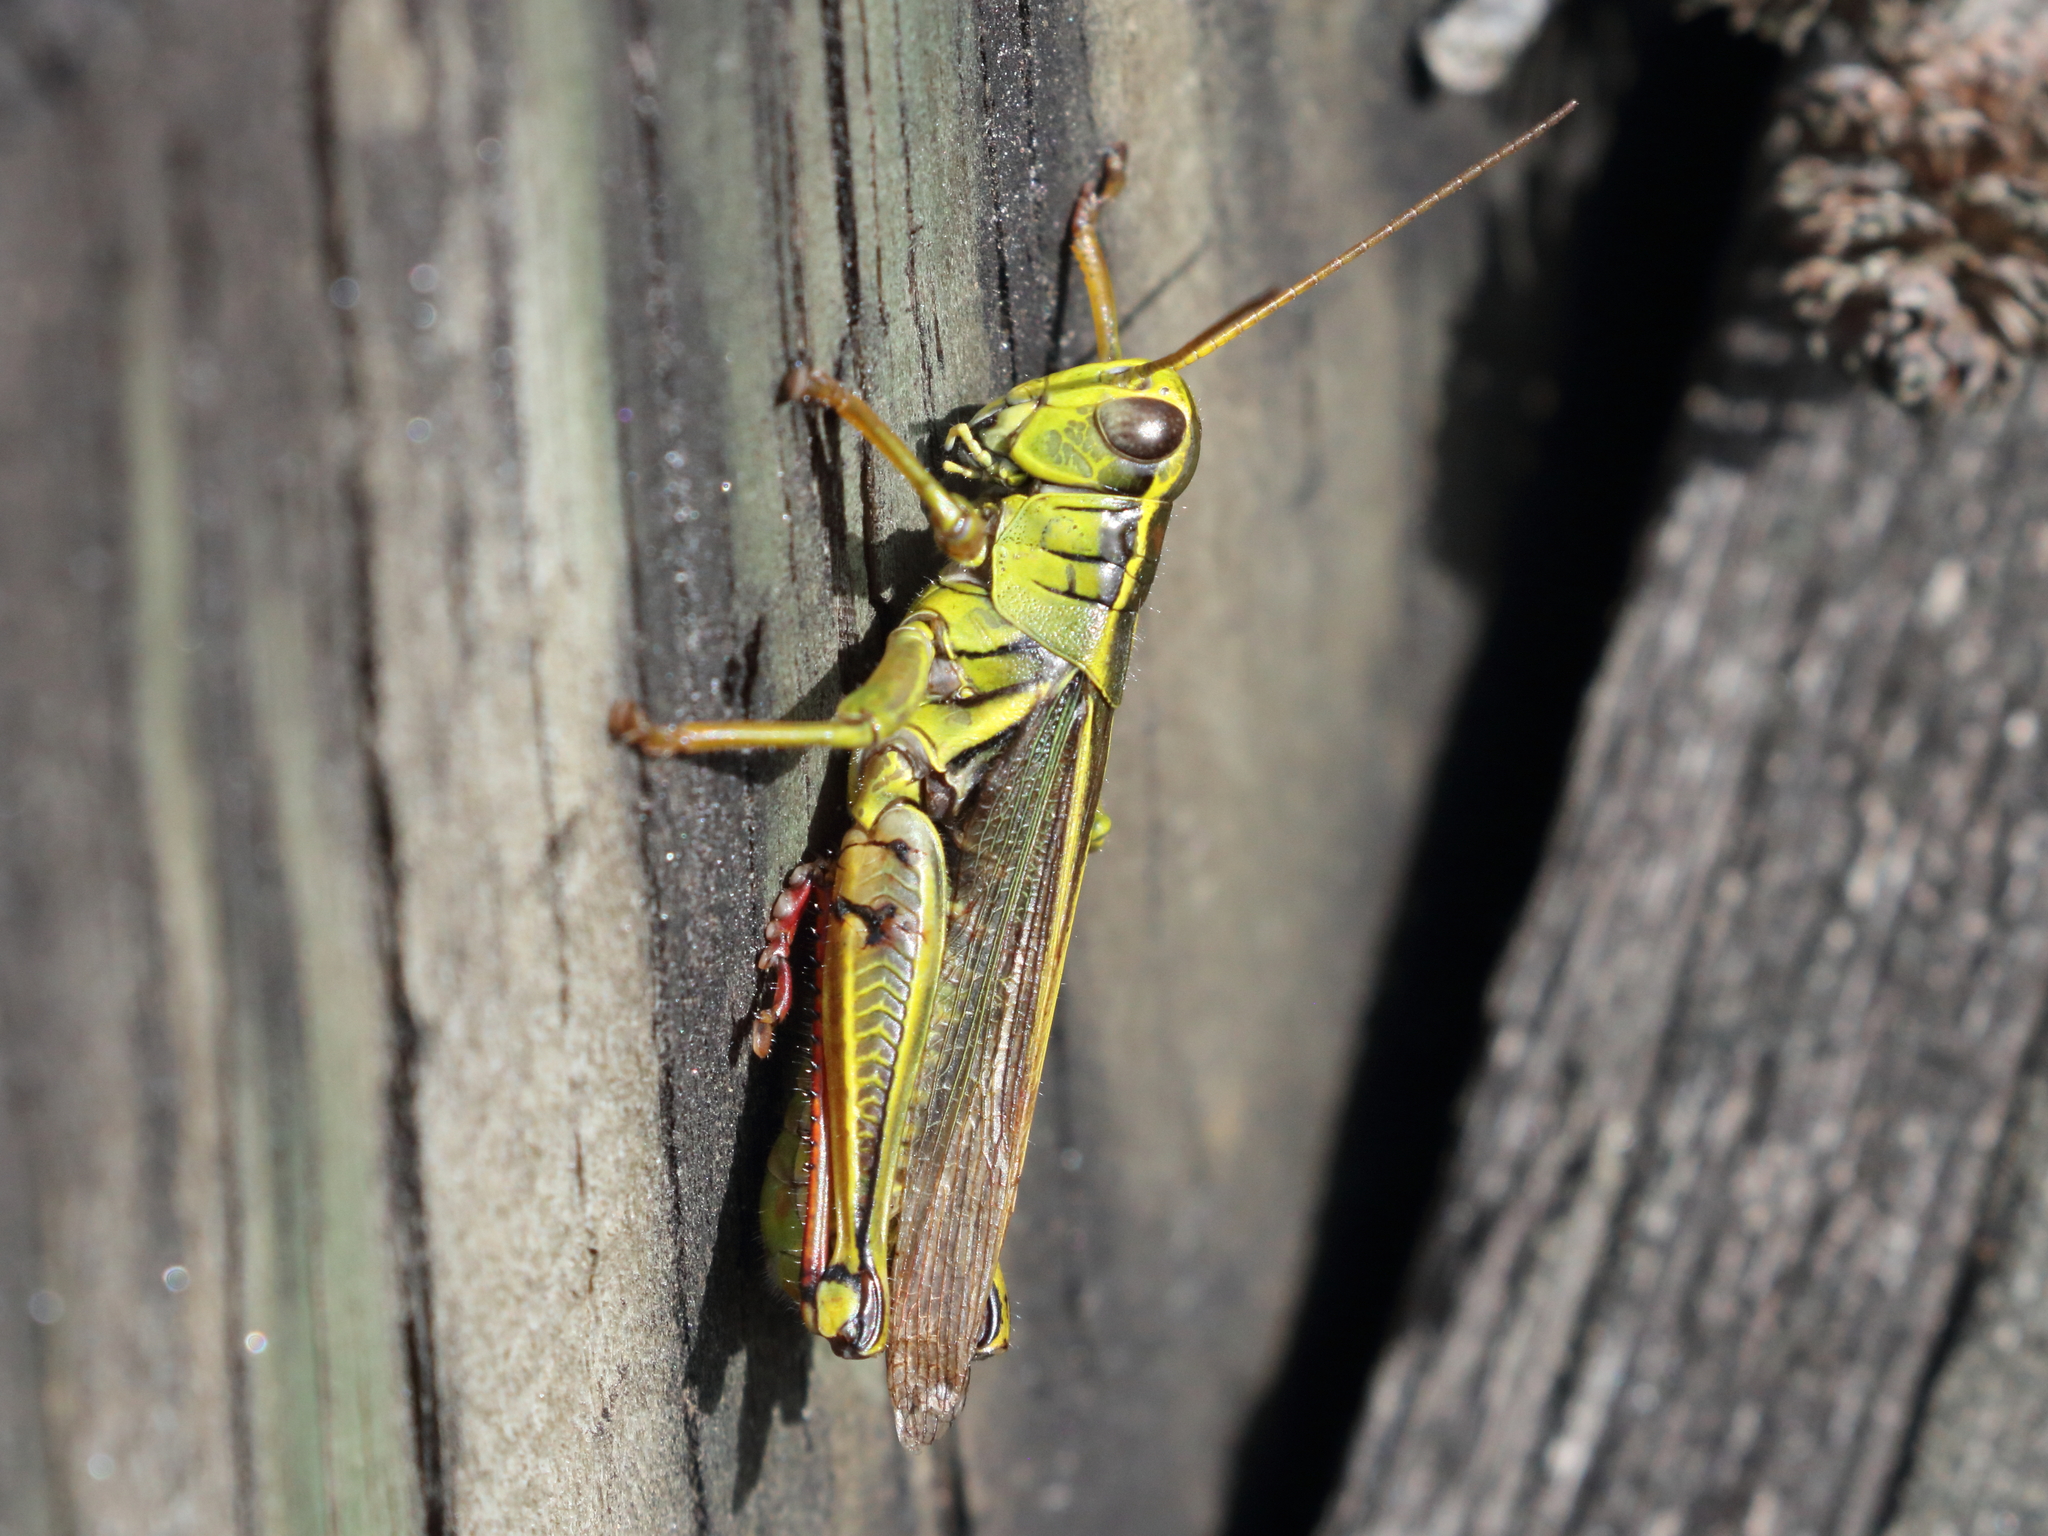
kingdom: Animalia
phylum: Arthropoda
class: Insecta
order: Orthoptera
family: Acrididae
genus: Melanoplus
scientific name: Melanoplus bivittatus
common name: Two-striped grasshopper
